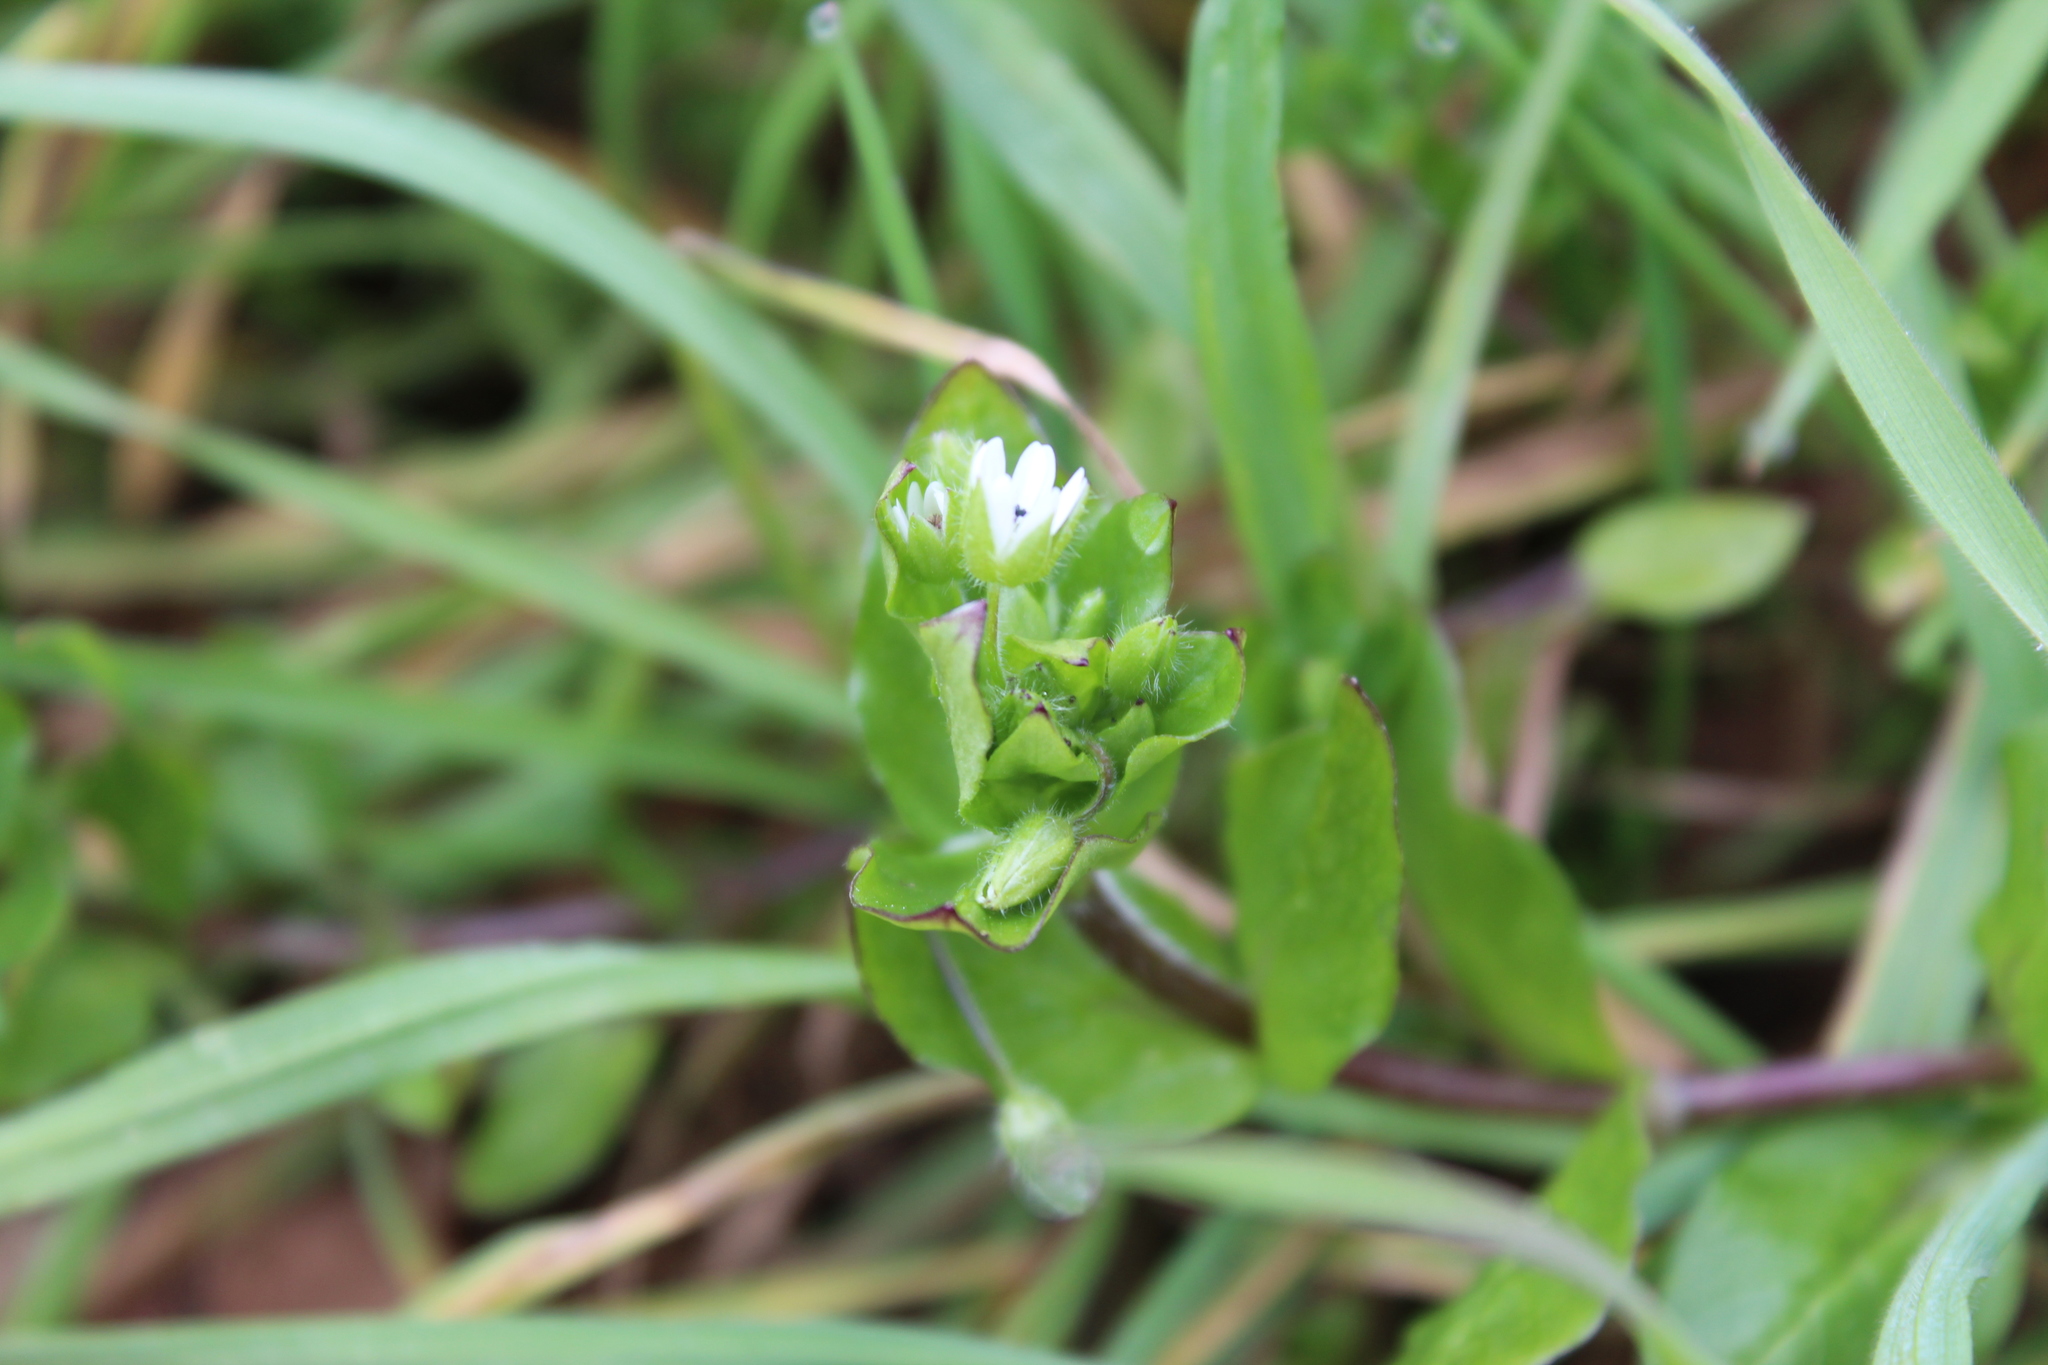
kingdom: Plantae
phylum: Tracheophyta
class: Magnoliopsida
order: Caryophyllales
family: Caryophyllaceae
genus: Stellaria
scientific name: Stellaria media
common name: Common chickweed
